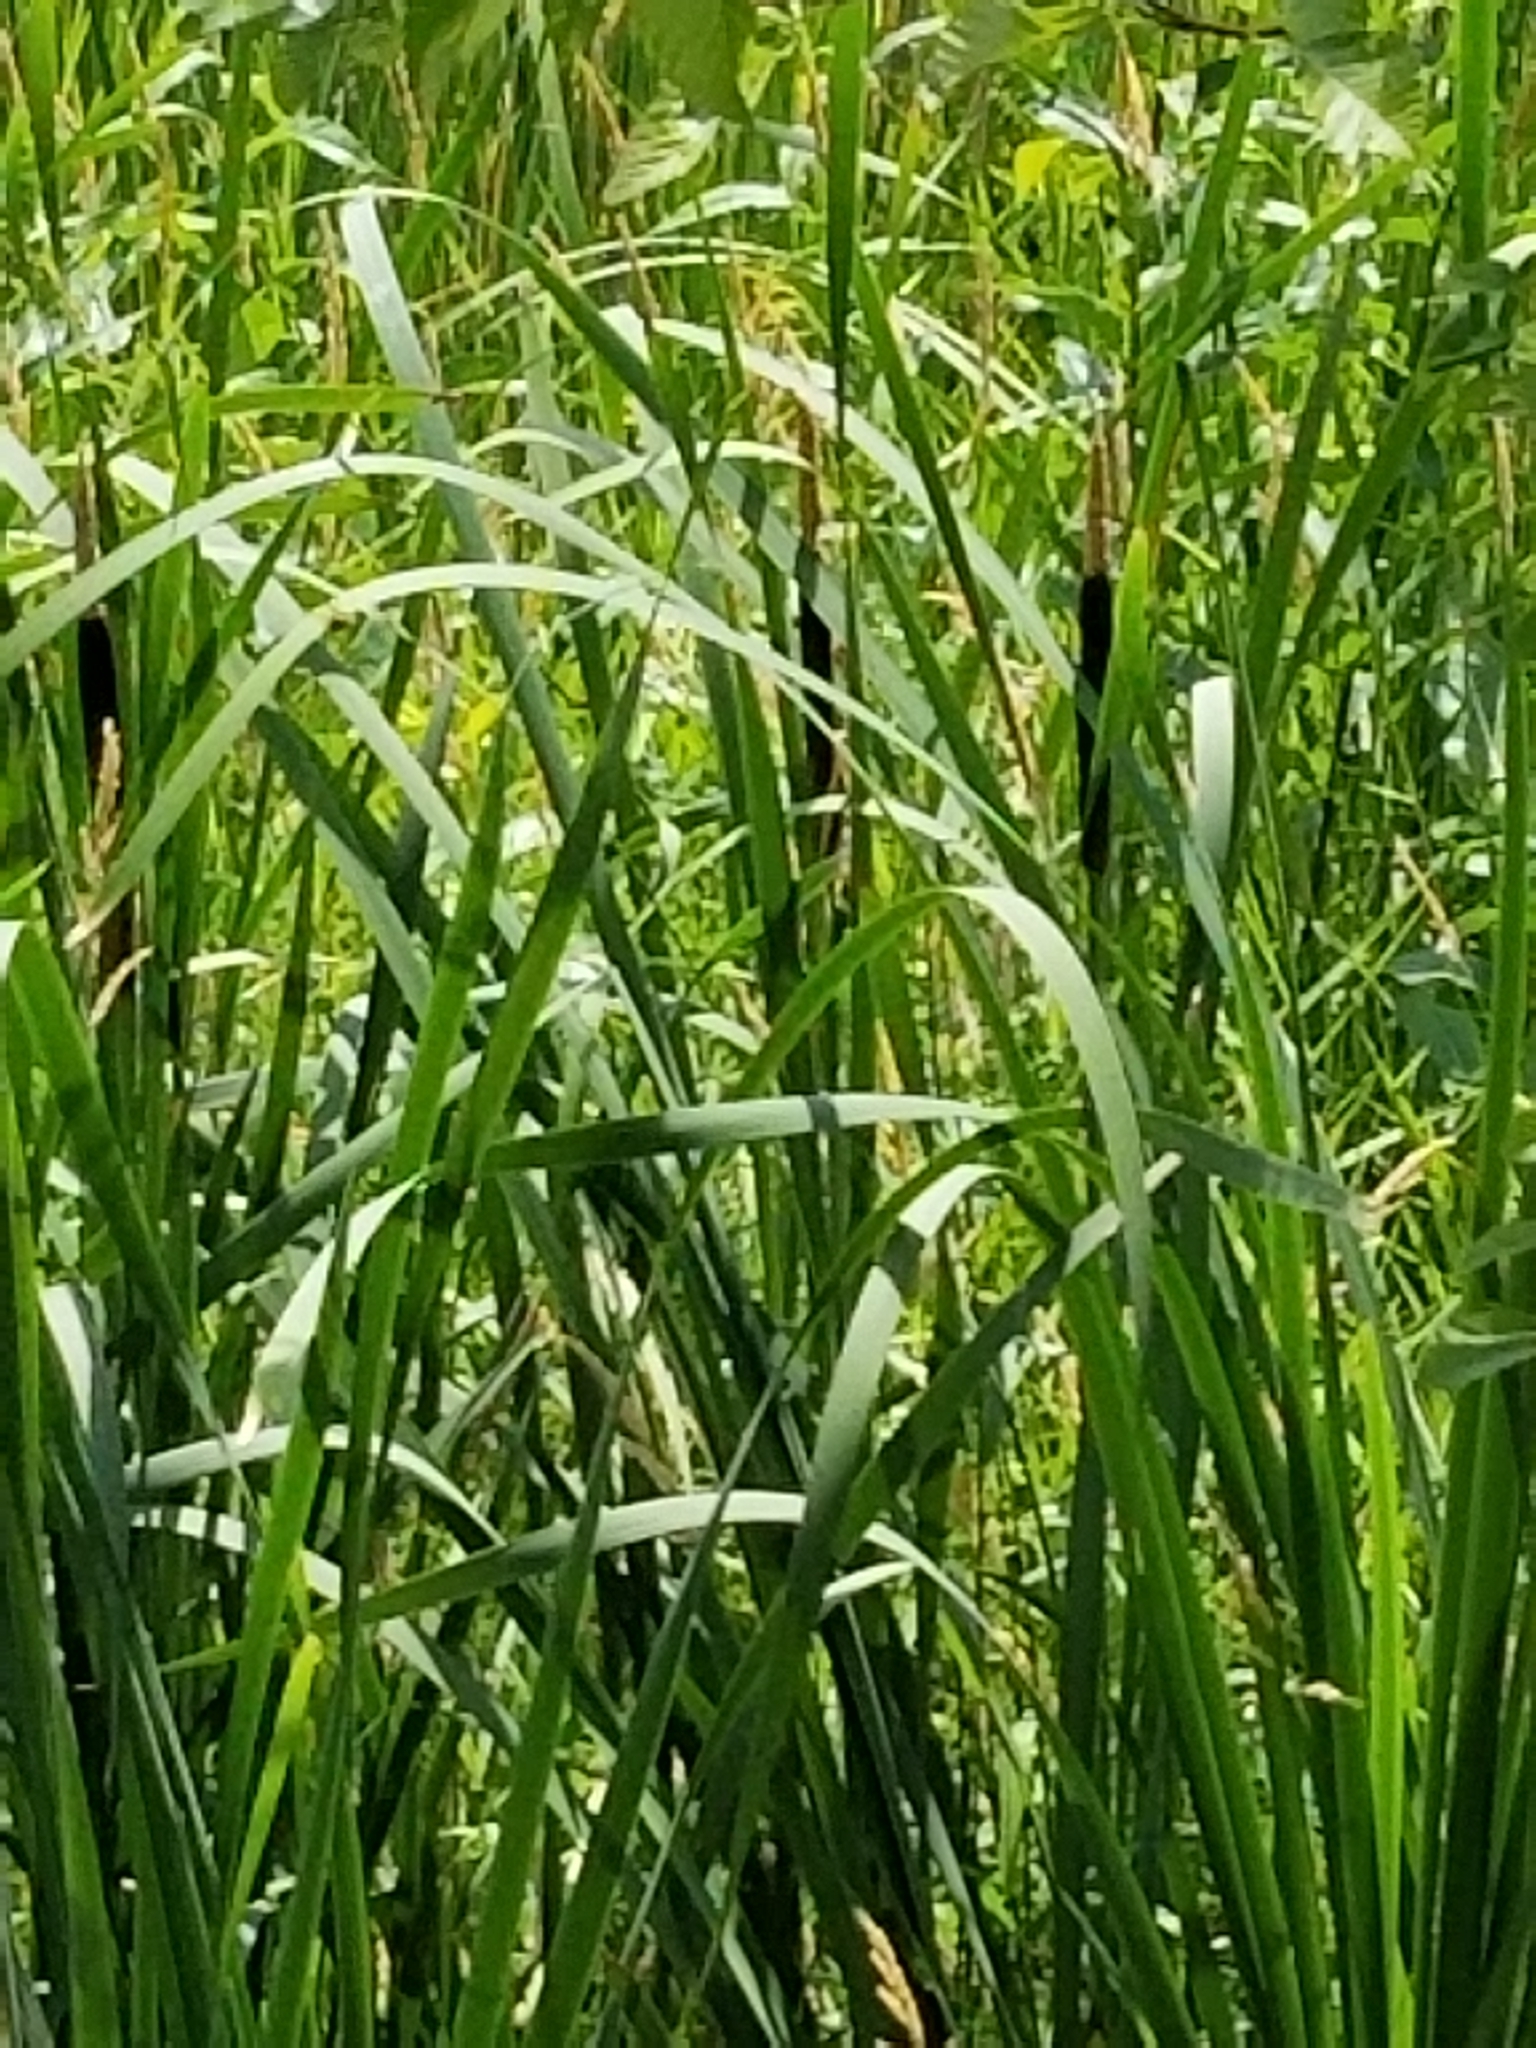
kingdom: Plantae
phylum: Tracheophyta
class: Liliopsida
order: Poales
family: Typhaceae
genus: Typha
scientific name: Typha latifolia
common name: Broadleaf cattail
